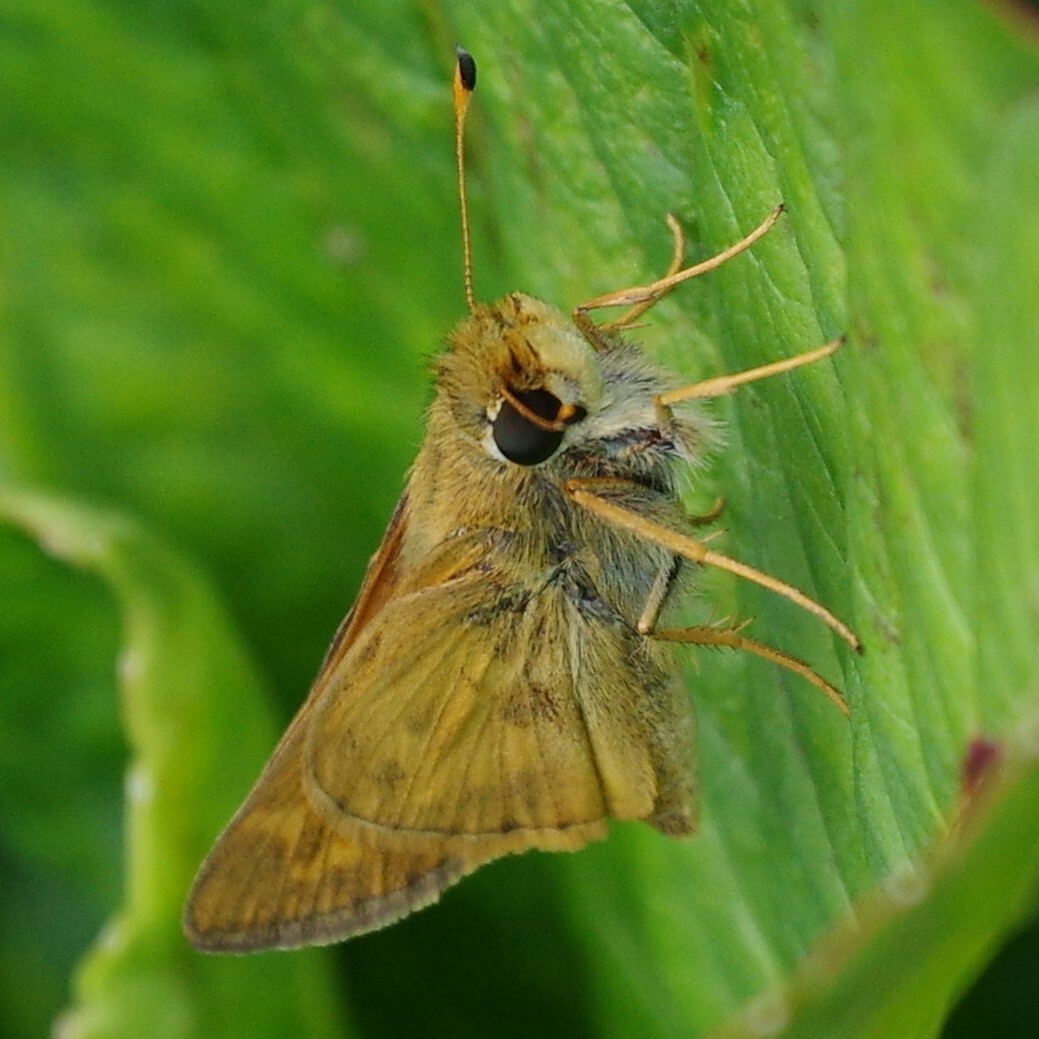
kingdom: Animalia
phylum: Arthropoda
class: Insecta
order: Lepidoptera
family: Hesperiidae
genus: Atalopedes
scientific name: Atalopedes
